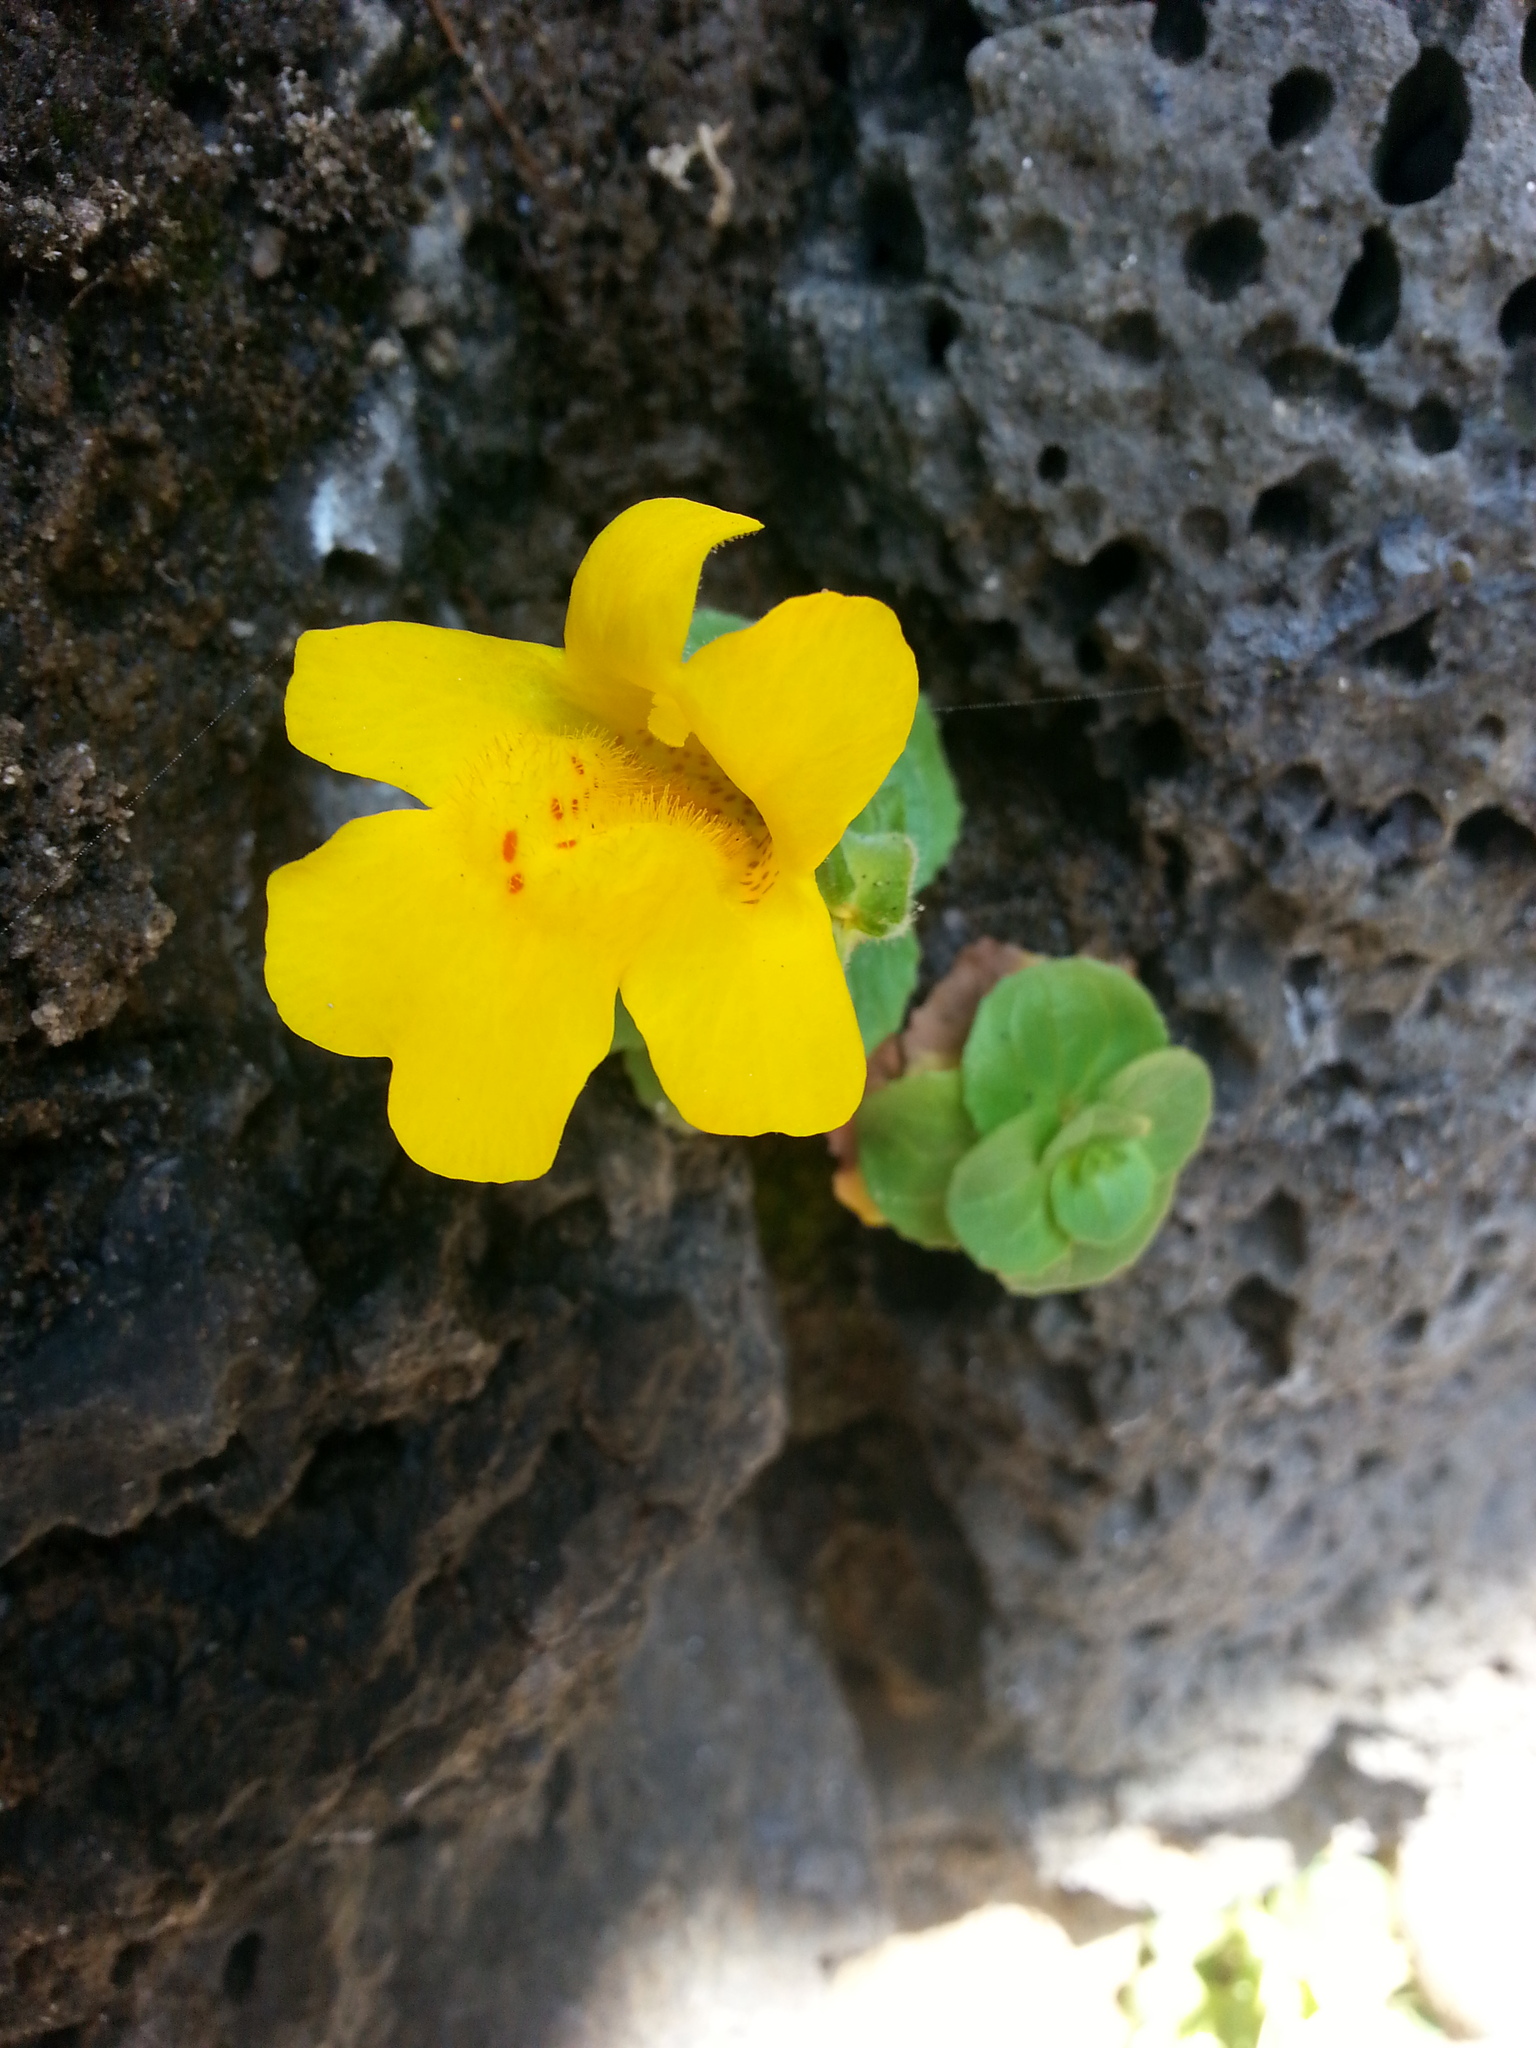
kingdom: Plantae
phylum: Tracheophyta
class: Magnoliopsida
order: Lamiales
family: Phrymaceae
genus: Erythranthe
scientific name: Erythranthe grandis
